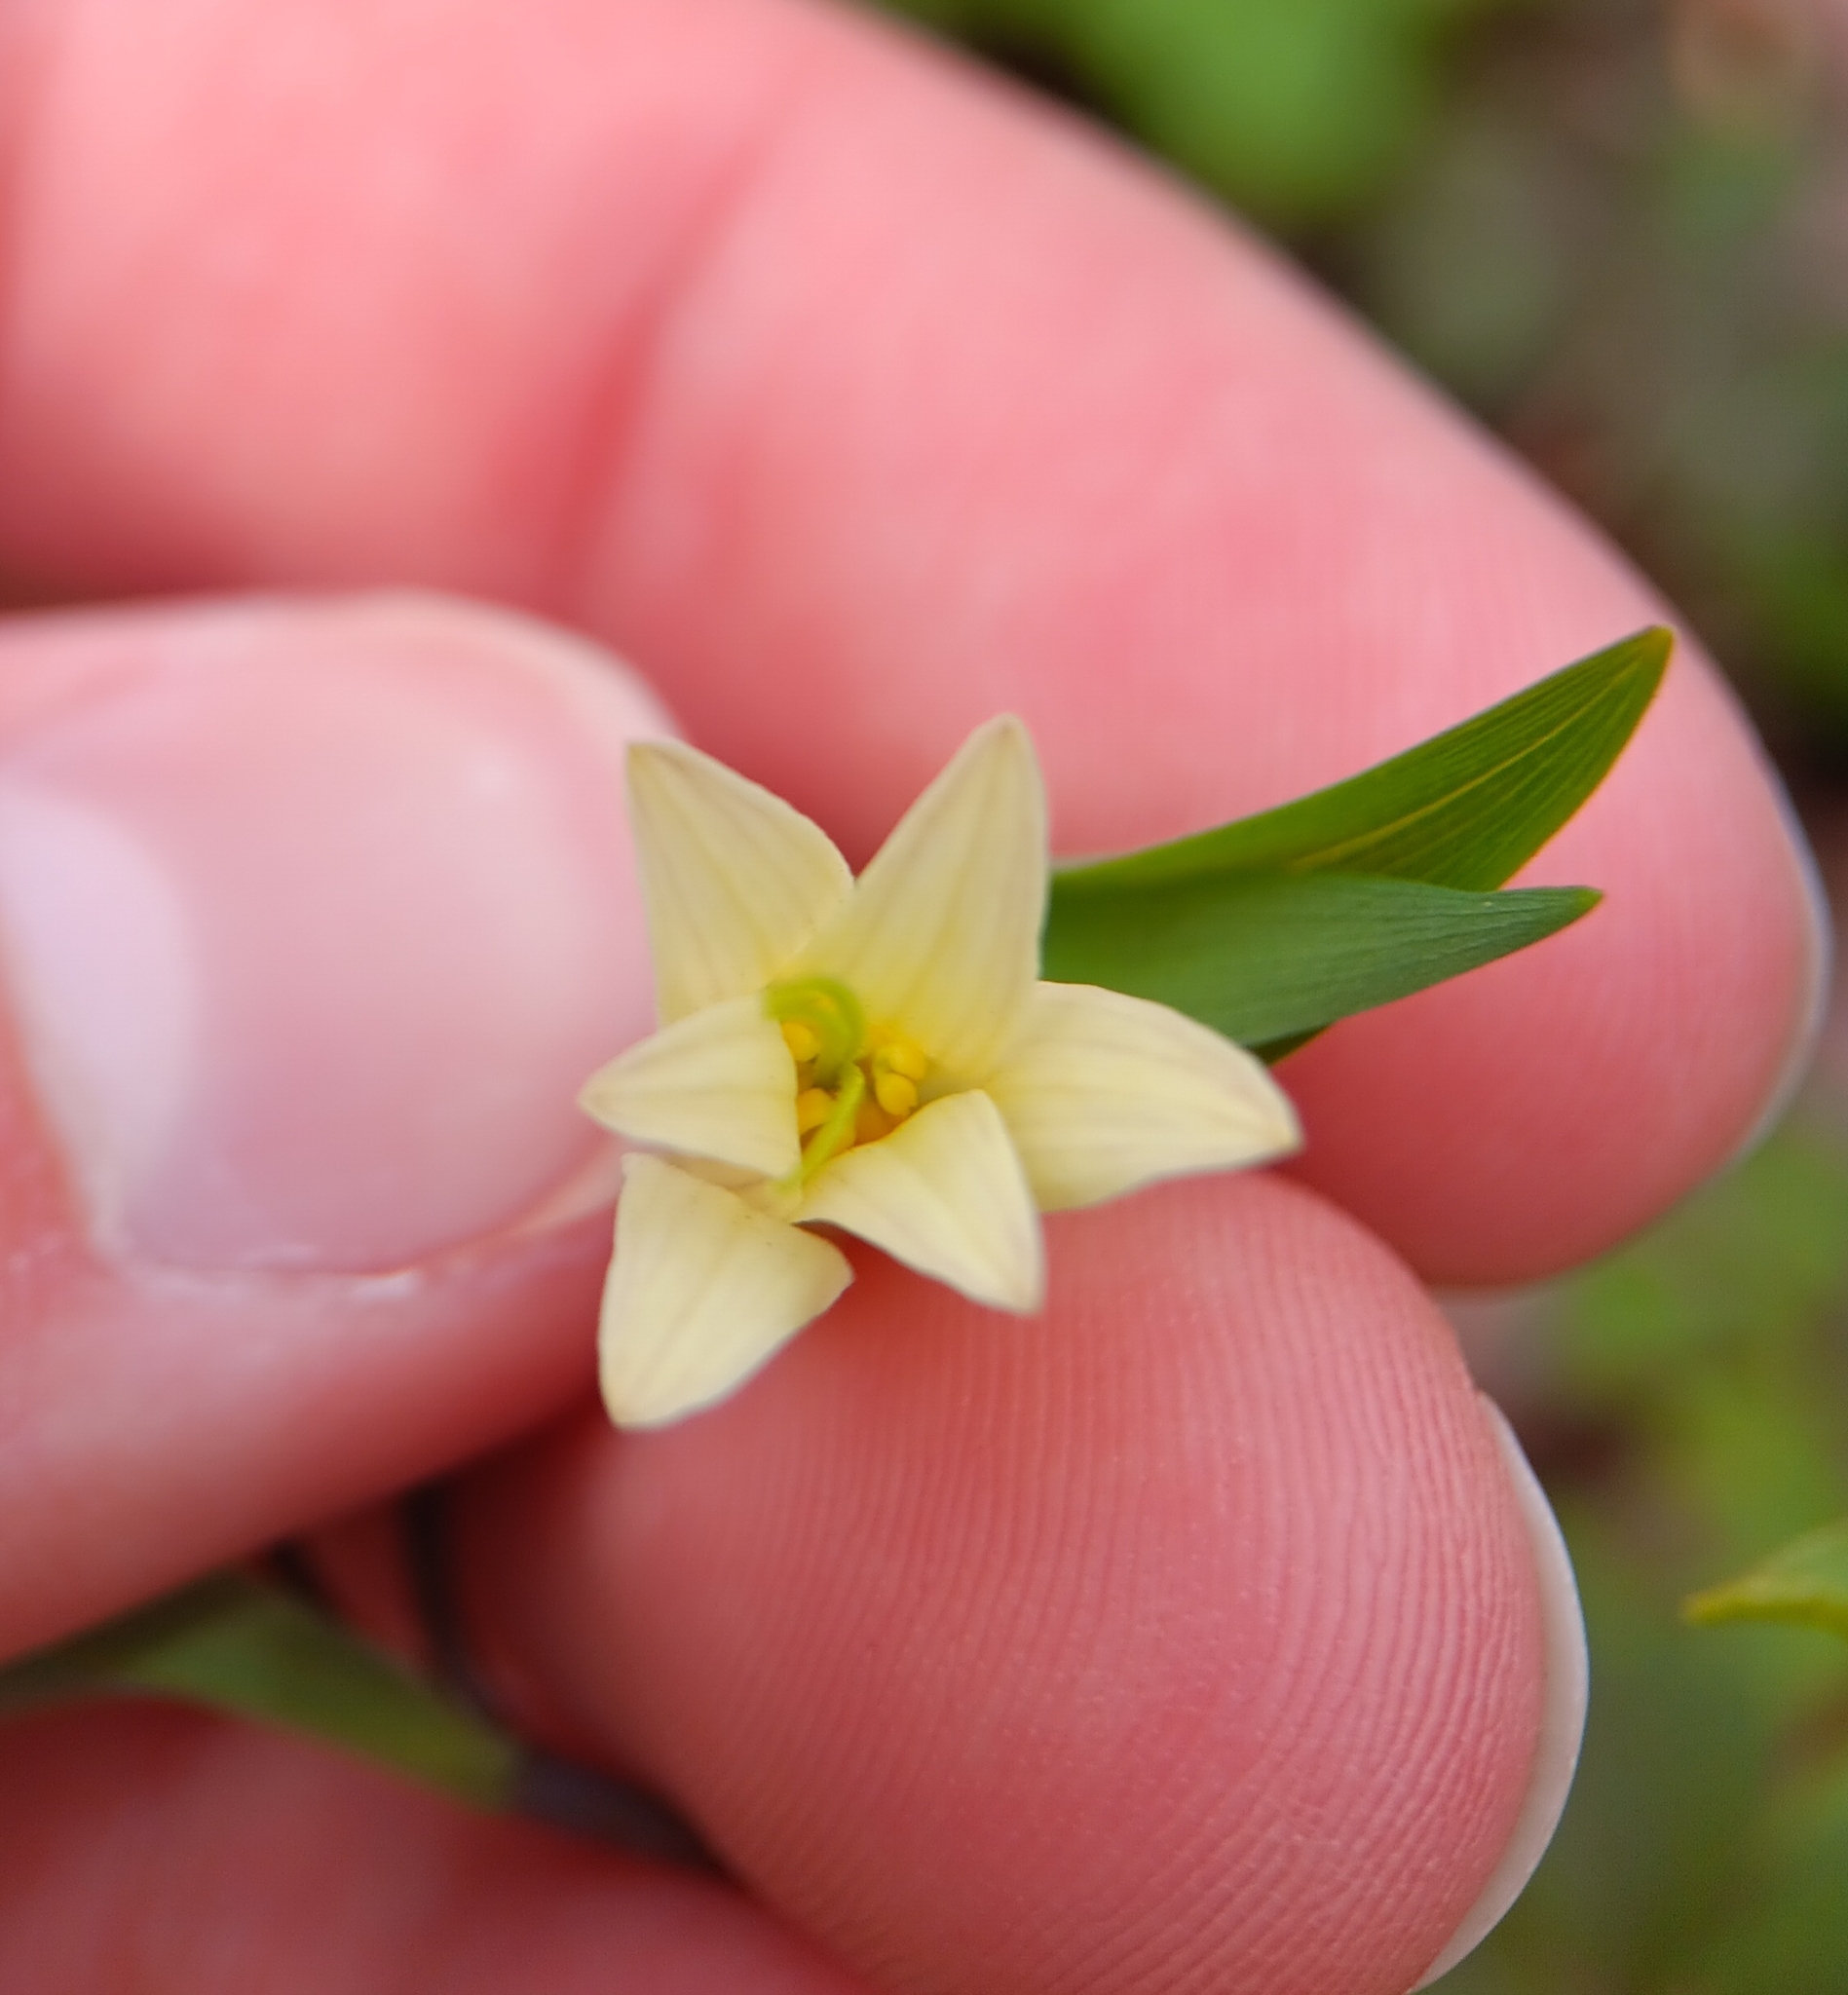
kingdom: Plantae
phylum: Tracheophyta
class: Liliopsida
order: Liliales
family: Colchicaceae
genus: Uvularia
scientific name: Uvularia sessilifolia
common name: Straw-lily
